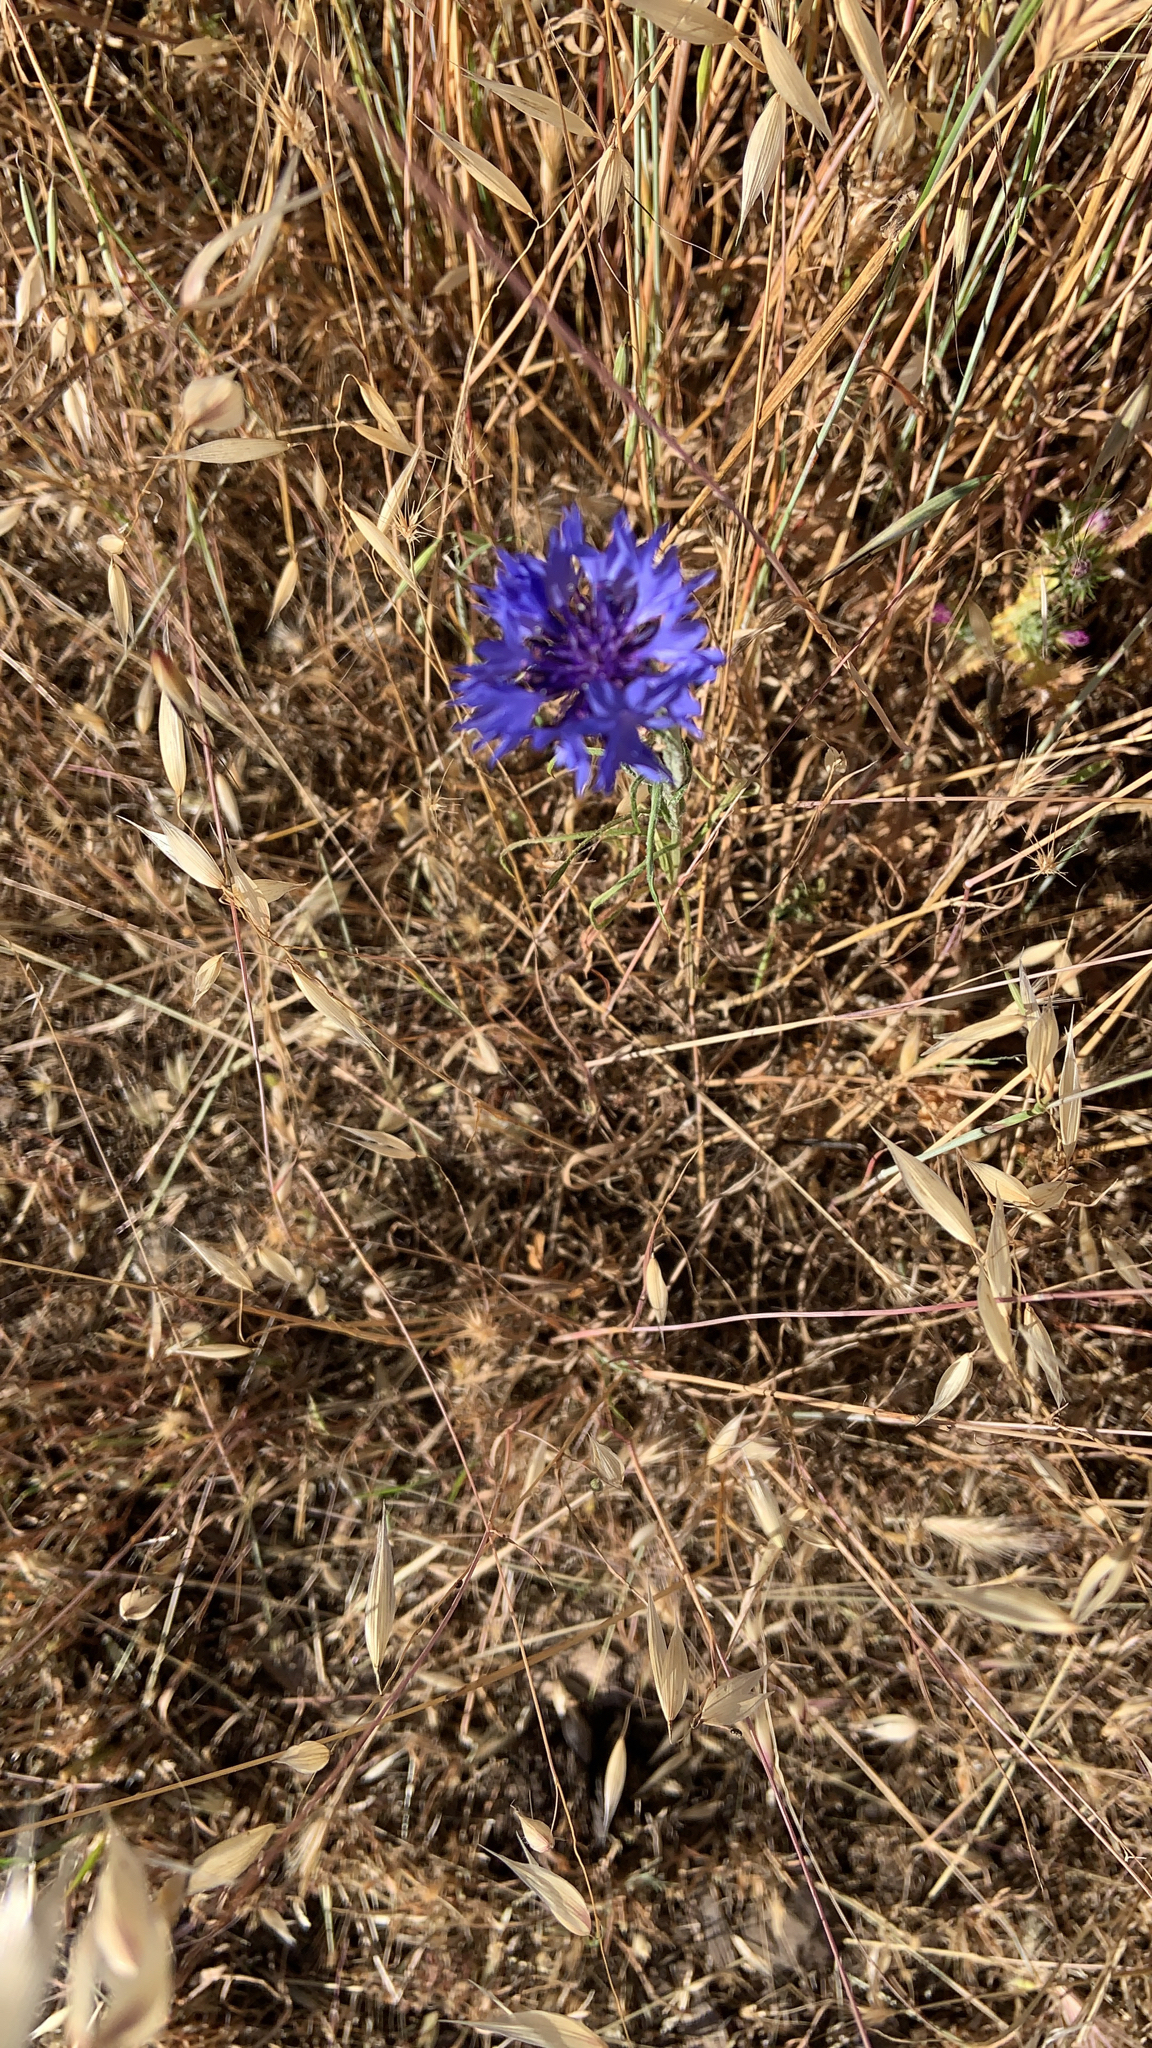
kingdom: Plantae
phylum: Tracheophyta
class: Magnoliopsida
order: Asterales
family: Asteraceae
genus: Centaurea
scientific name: Centaurea cyanus
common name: Cornflower
